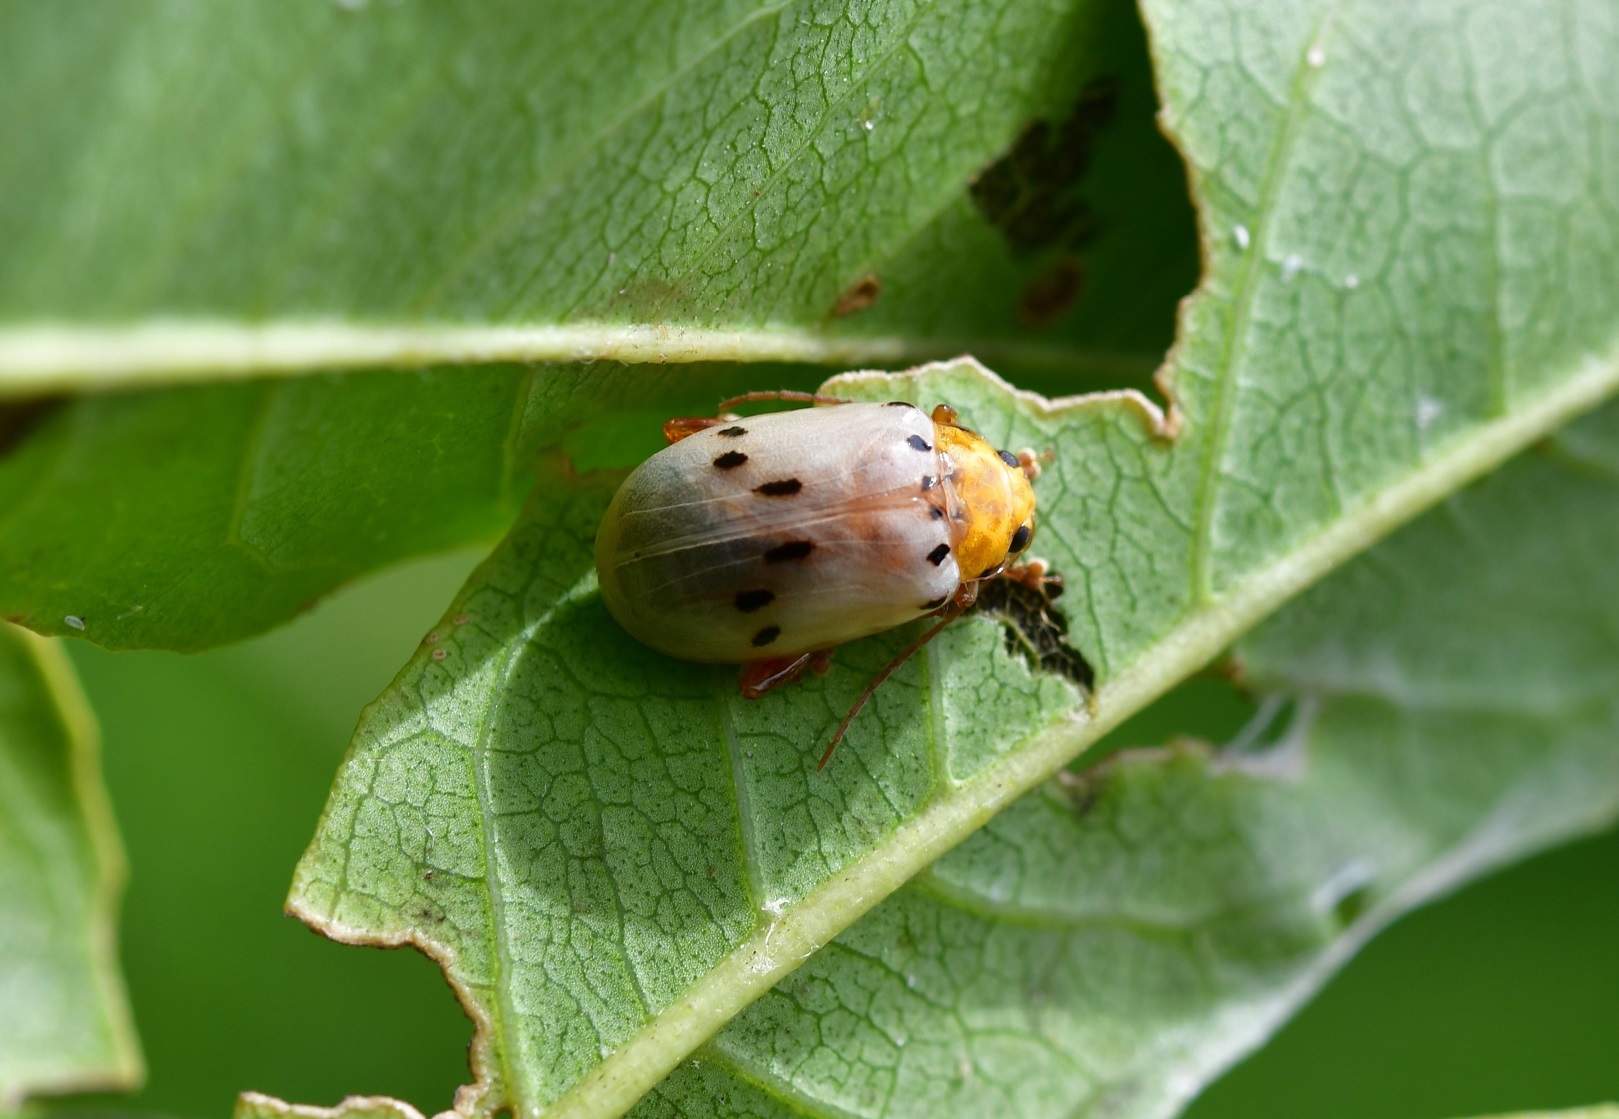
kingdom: Animalia
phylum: Arthropoda
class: Insecta
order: Coleoptera
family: Chrysomelidae
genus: Acrocyum
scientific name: Acrocyum sallaei
